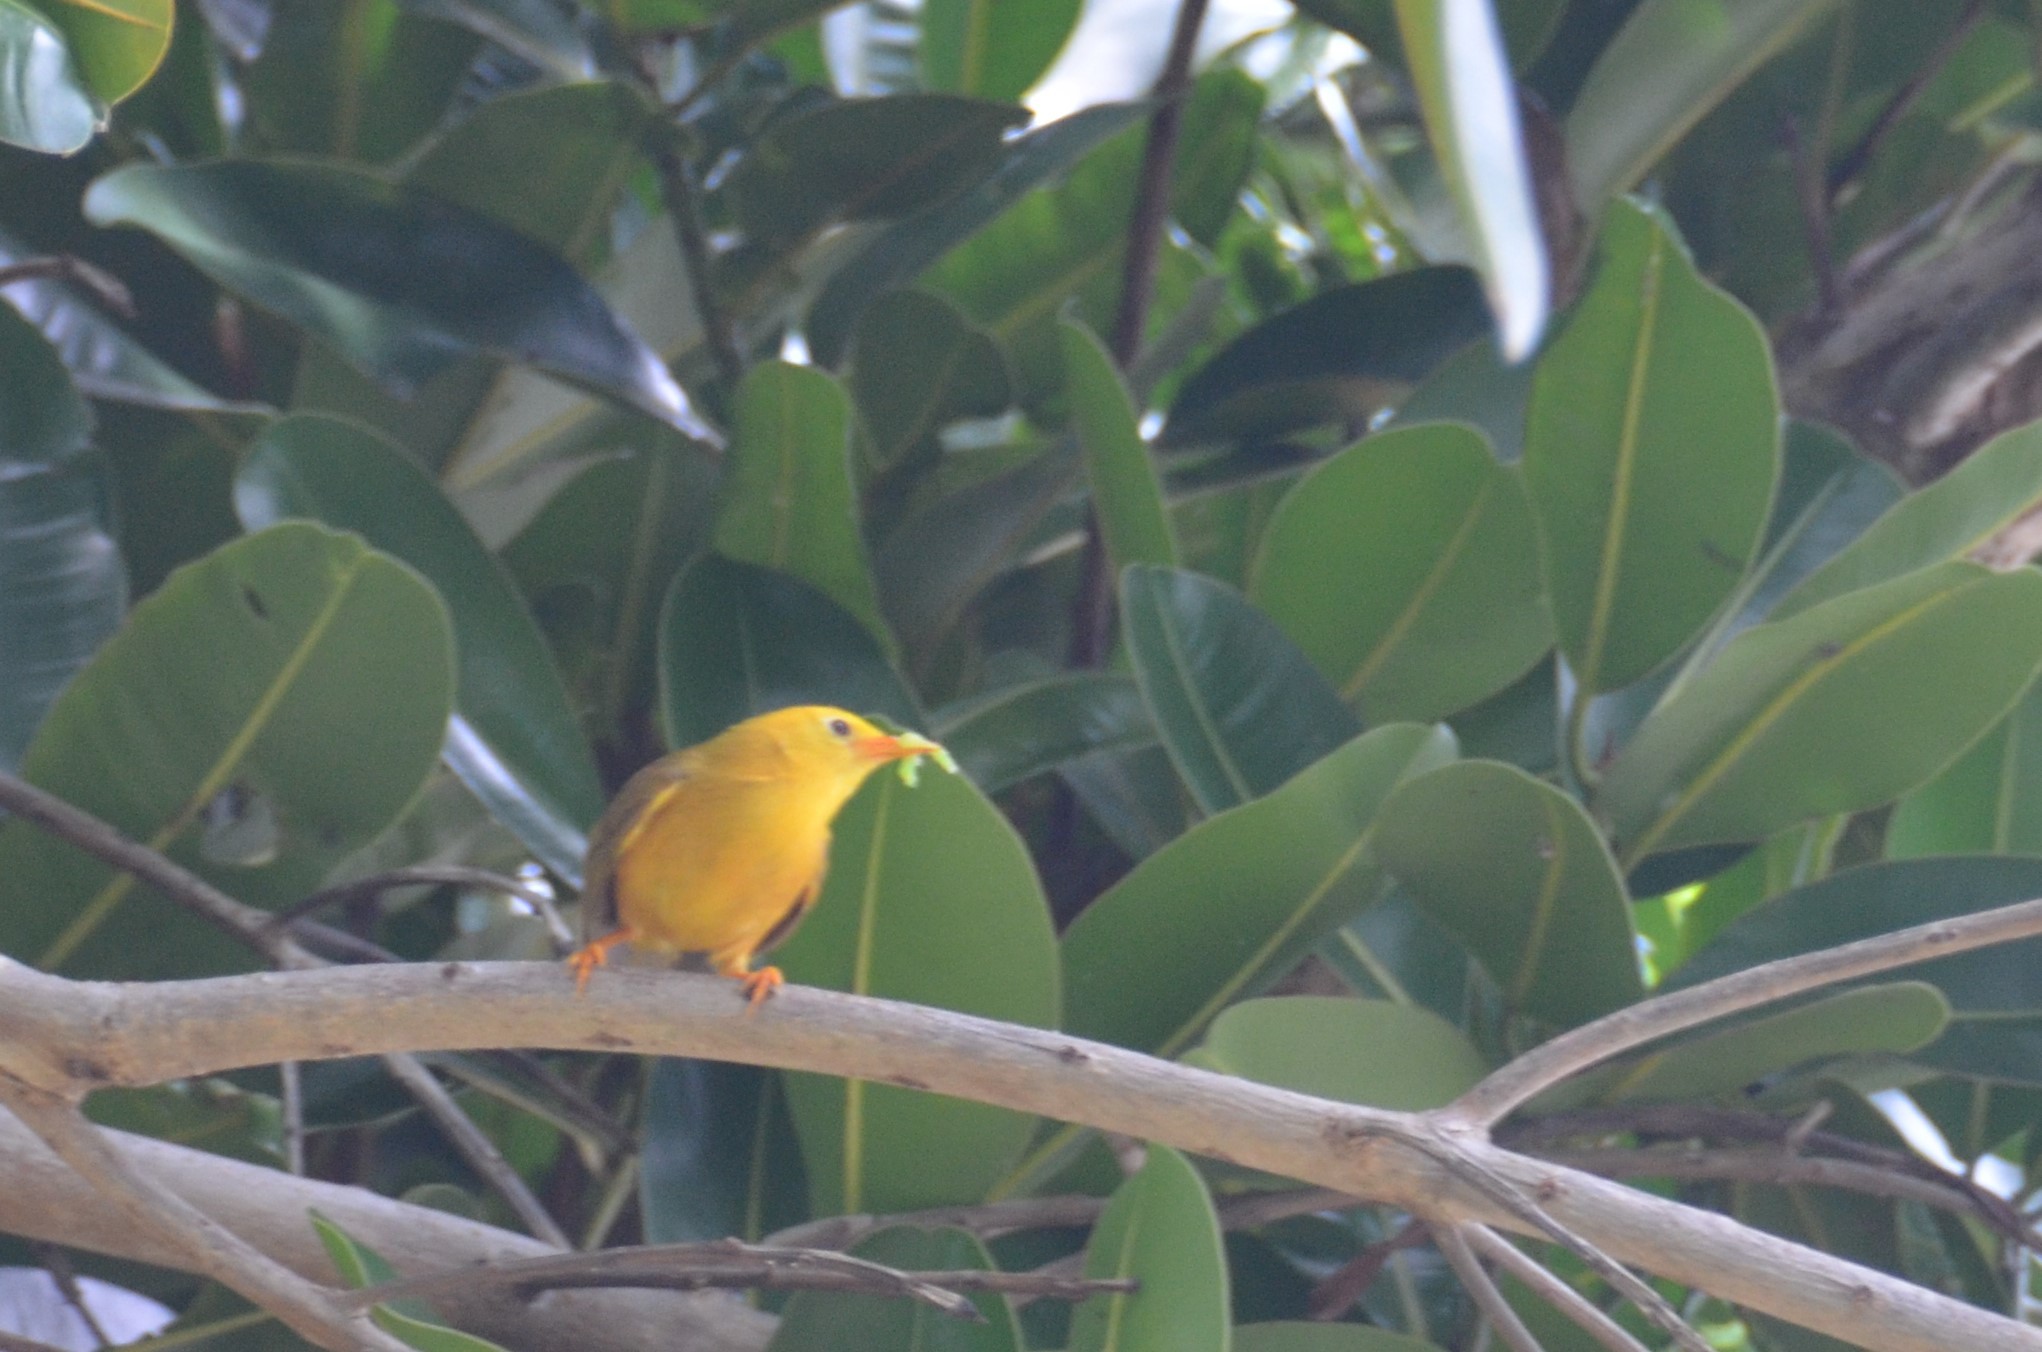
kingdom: Animalia
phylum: Chordata
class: Aves
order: Passeriformes
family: Zosteropidae
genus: Cleptornis
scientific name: Cleptornis marchei
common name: Golden white-eye
